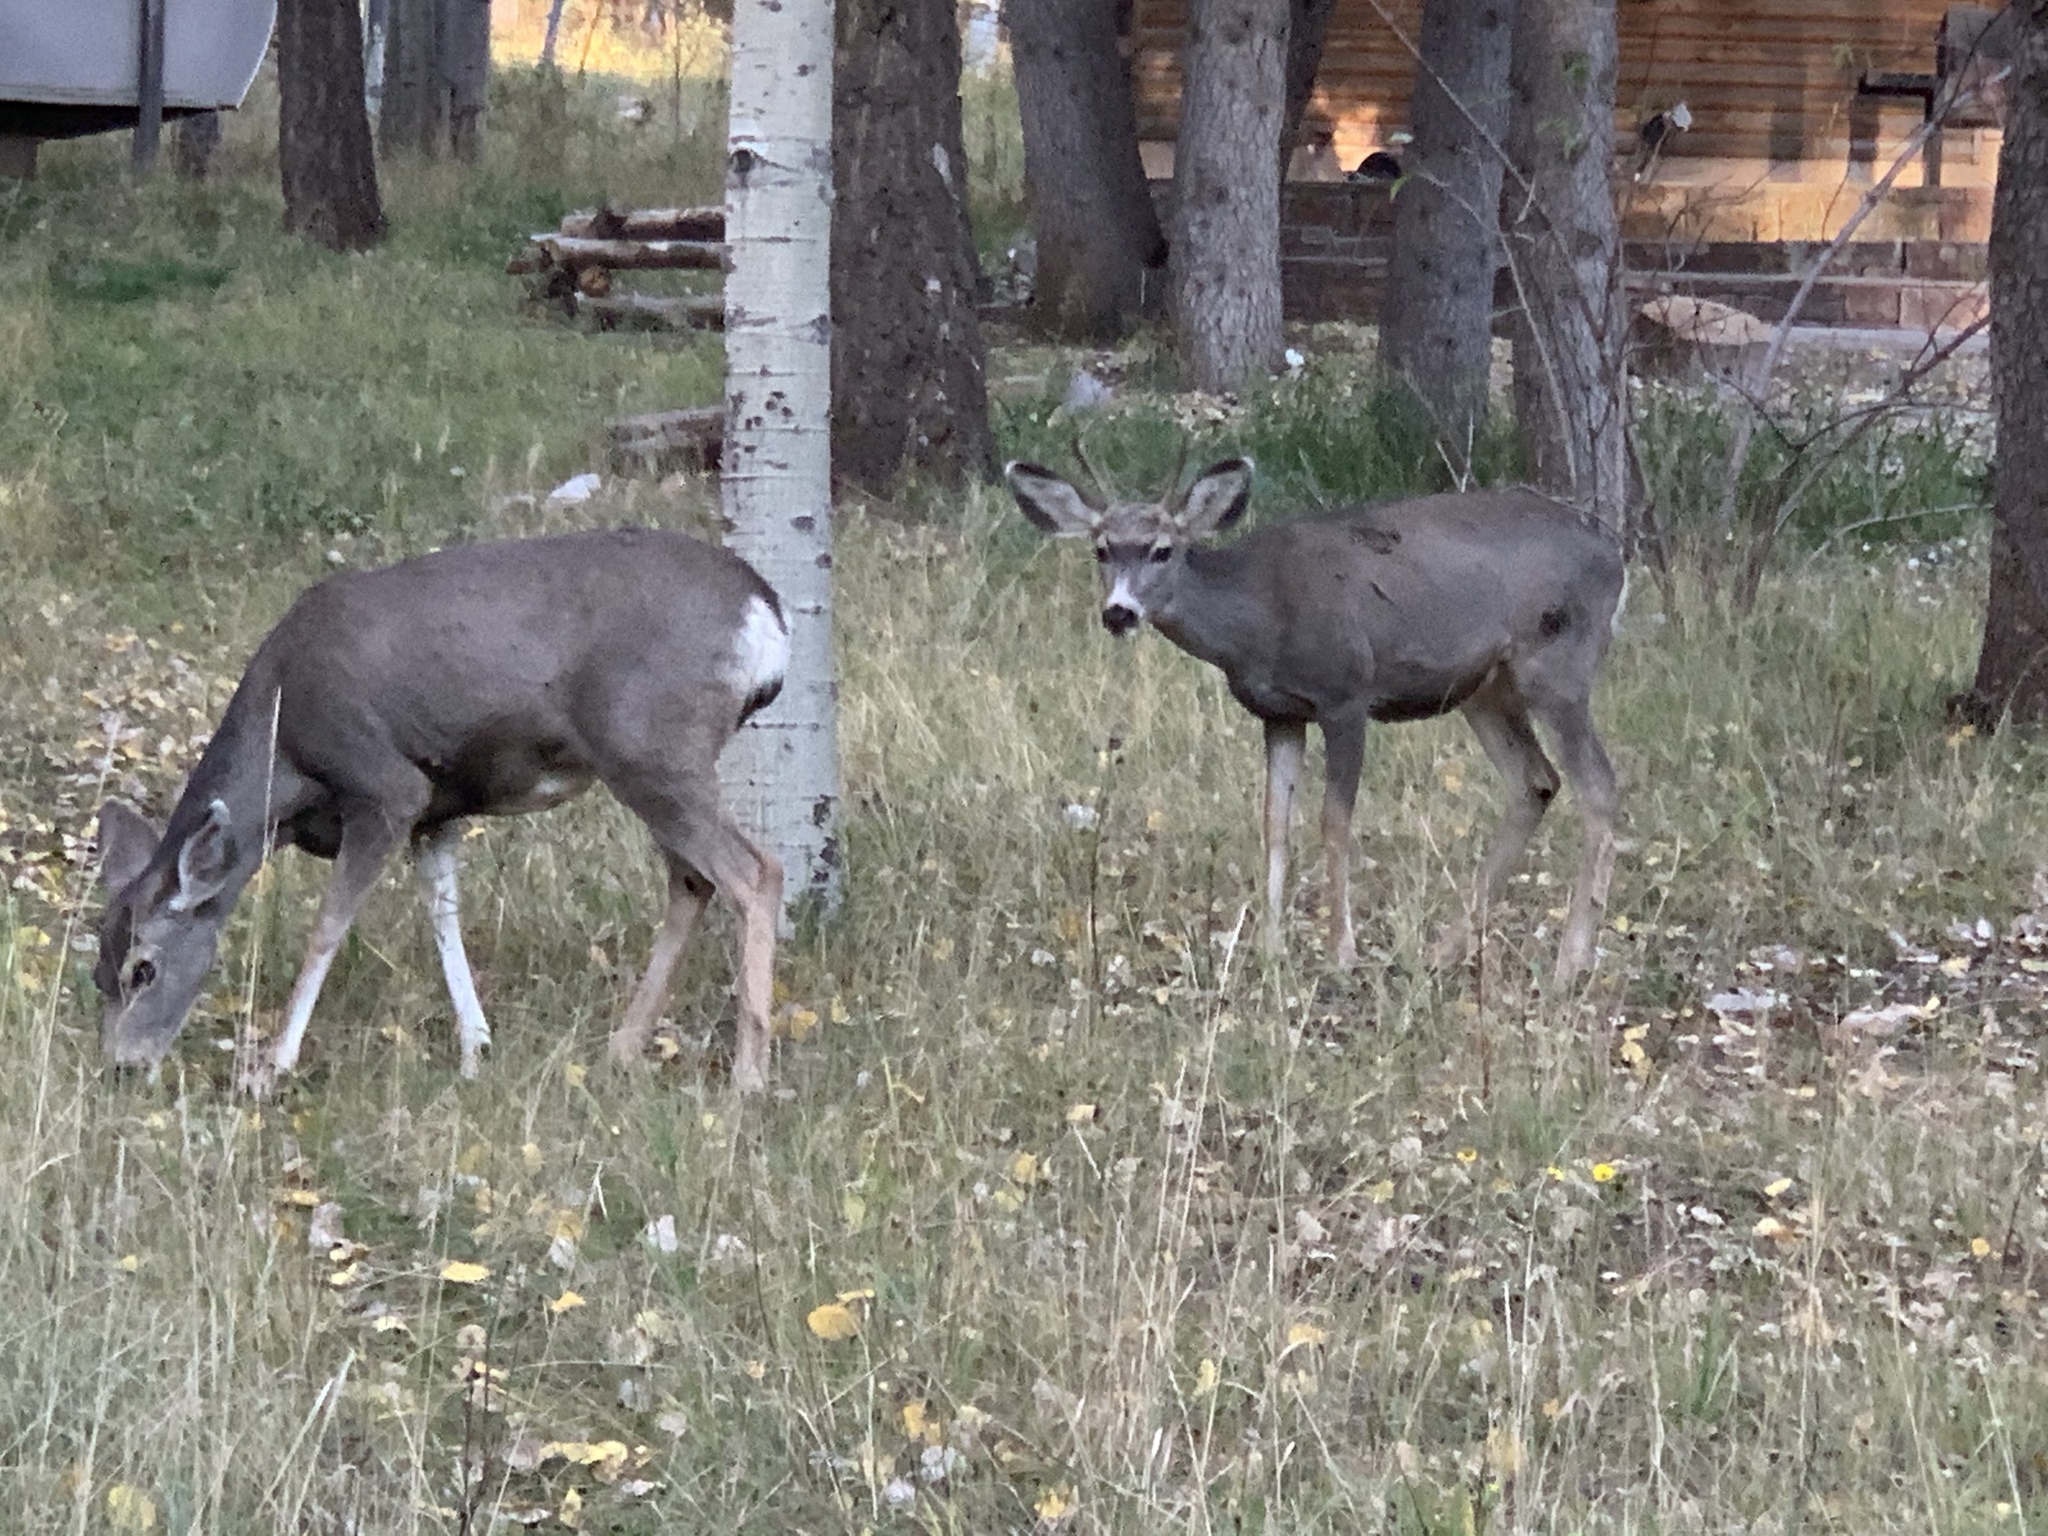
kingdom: Animalia
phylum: Chordata
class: Mammalia
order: Artiodactyla
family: Cervidae
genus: Odocoileus
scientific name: Odocoileus hemionus
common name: Mule deer
